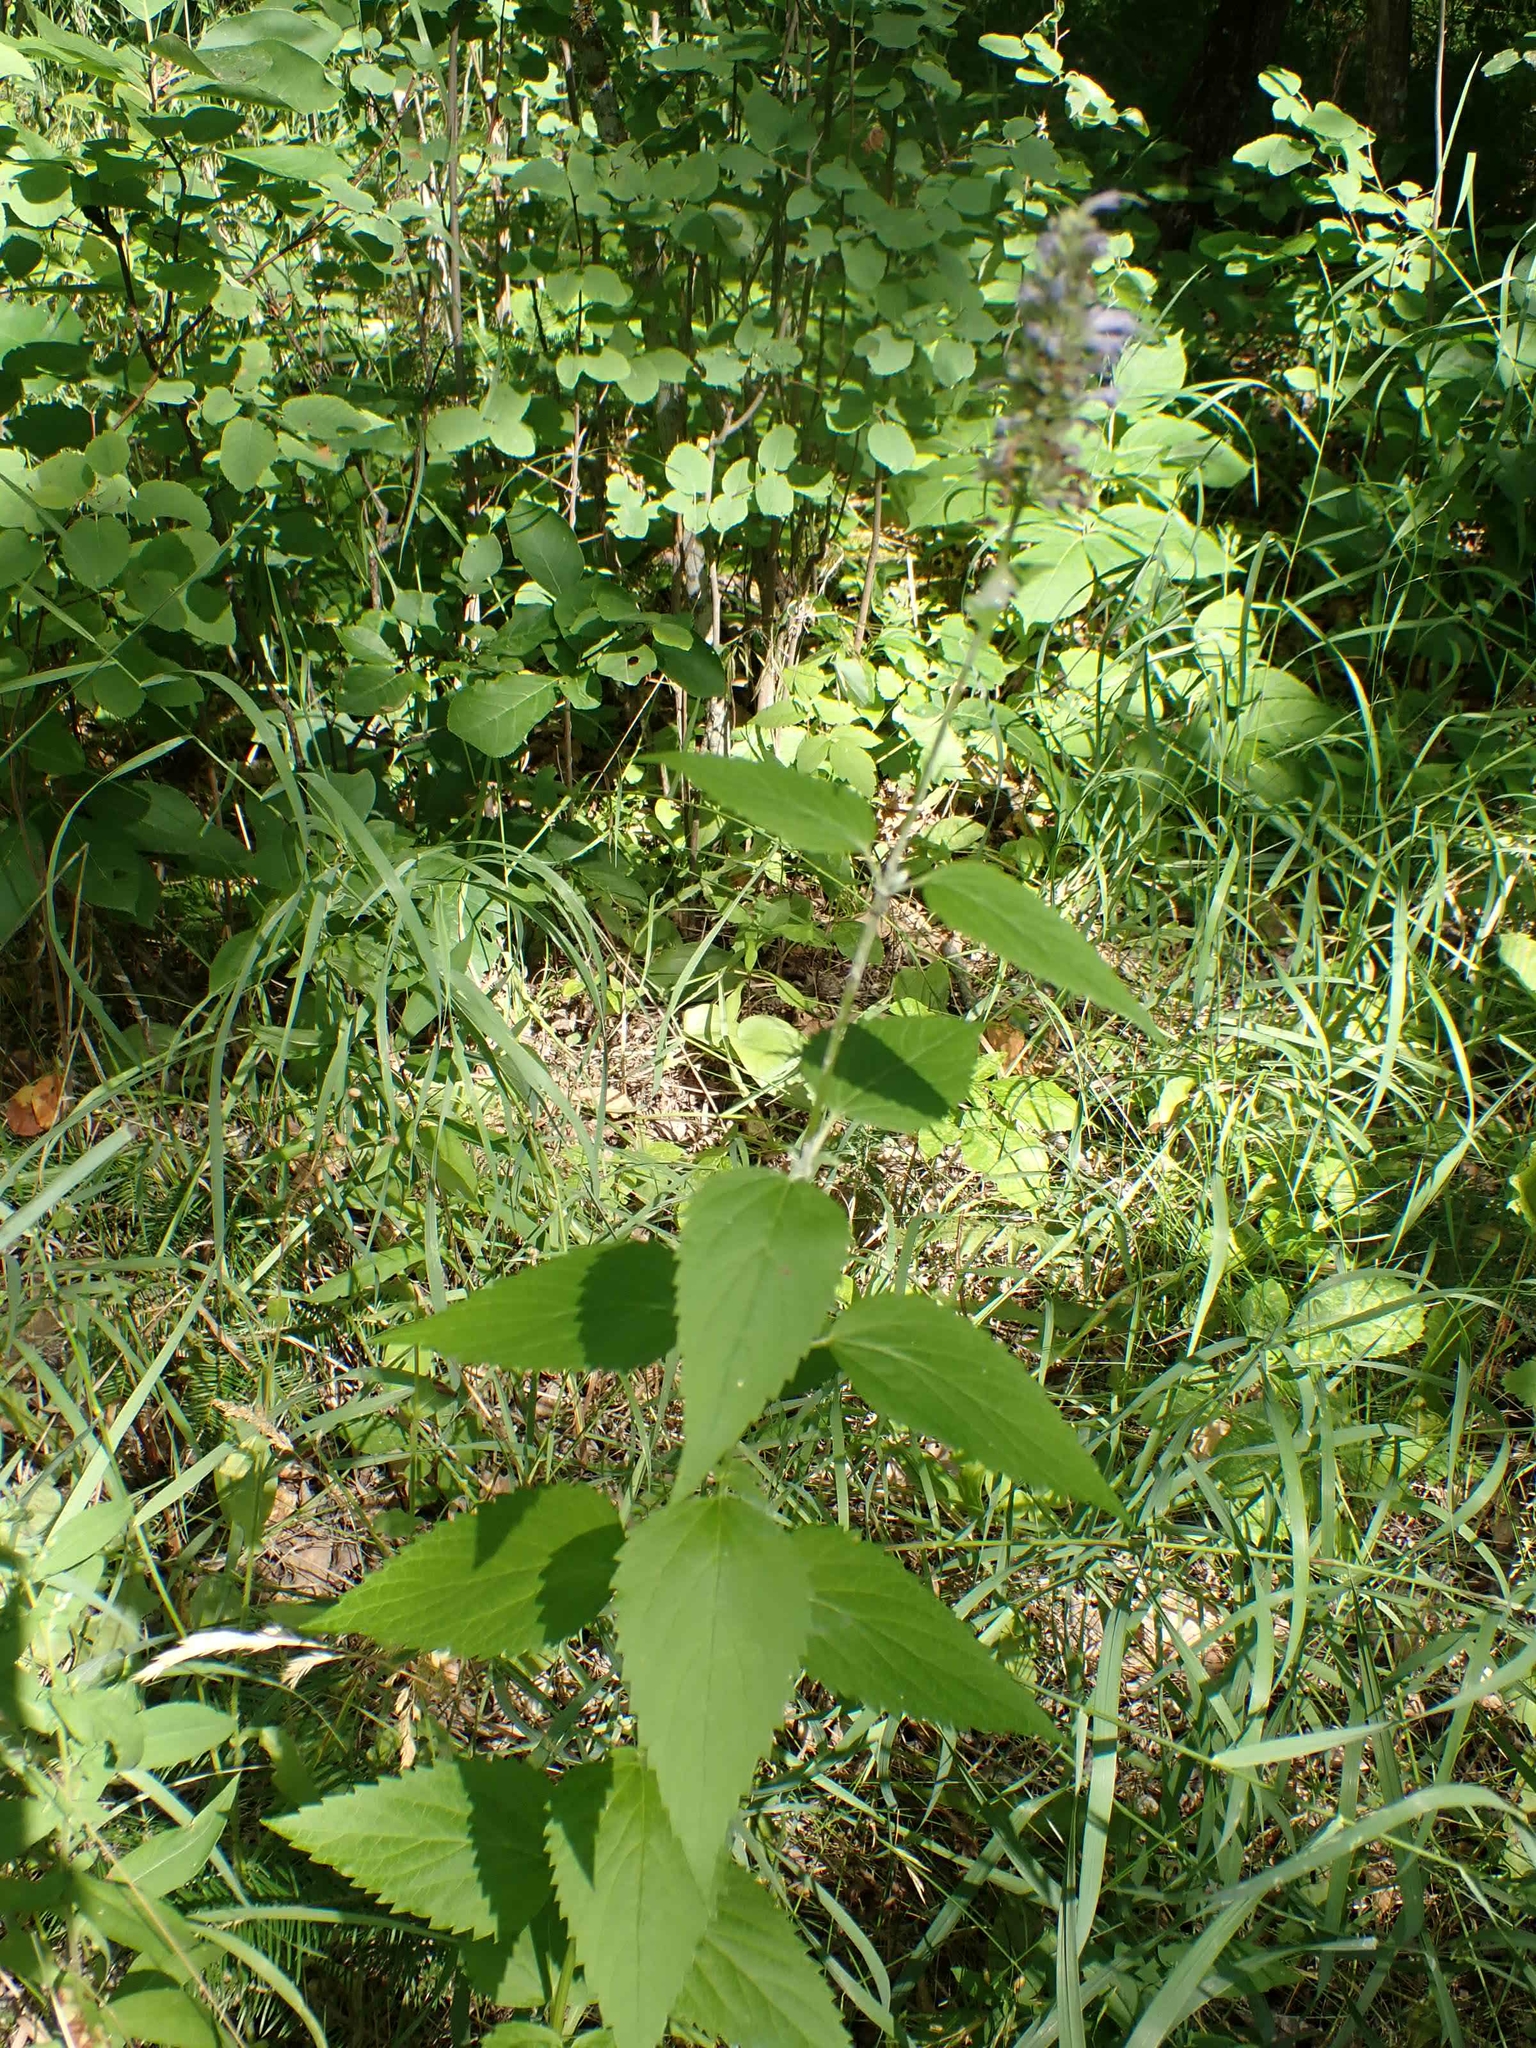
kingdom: Plantae
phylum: Tracheophyta
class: Magnoliopsida
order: Lamiales
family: Lamiaceae
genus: Agastache
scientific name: Agastache foeniculum
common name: Anise hyssop
